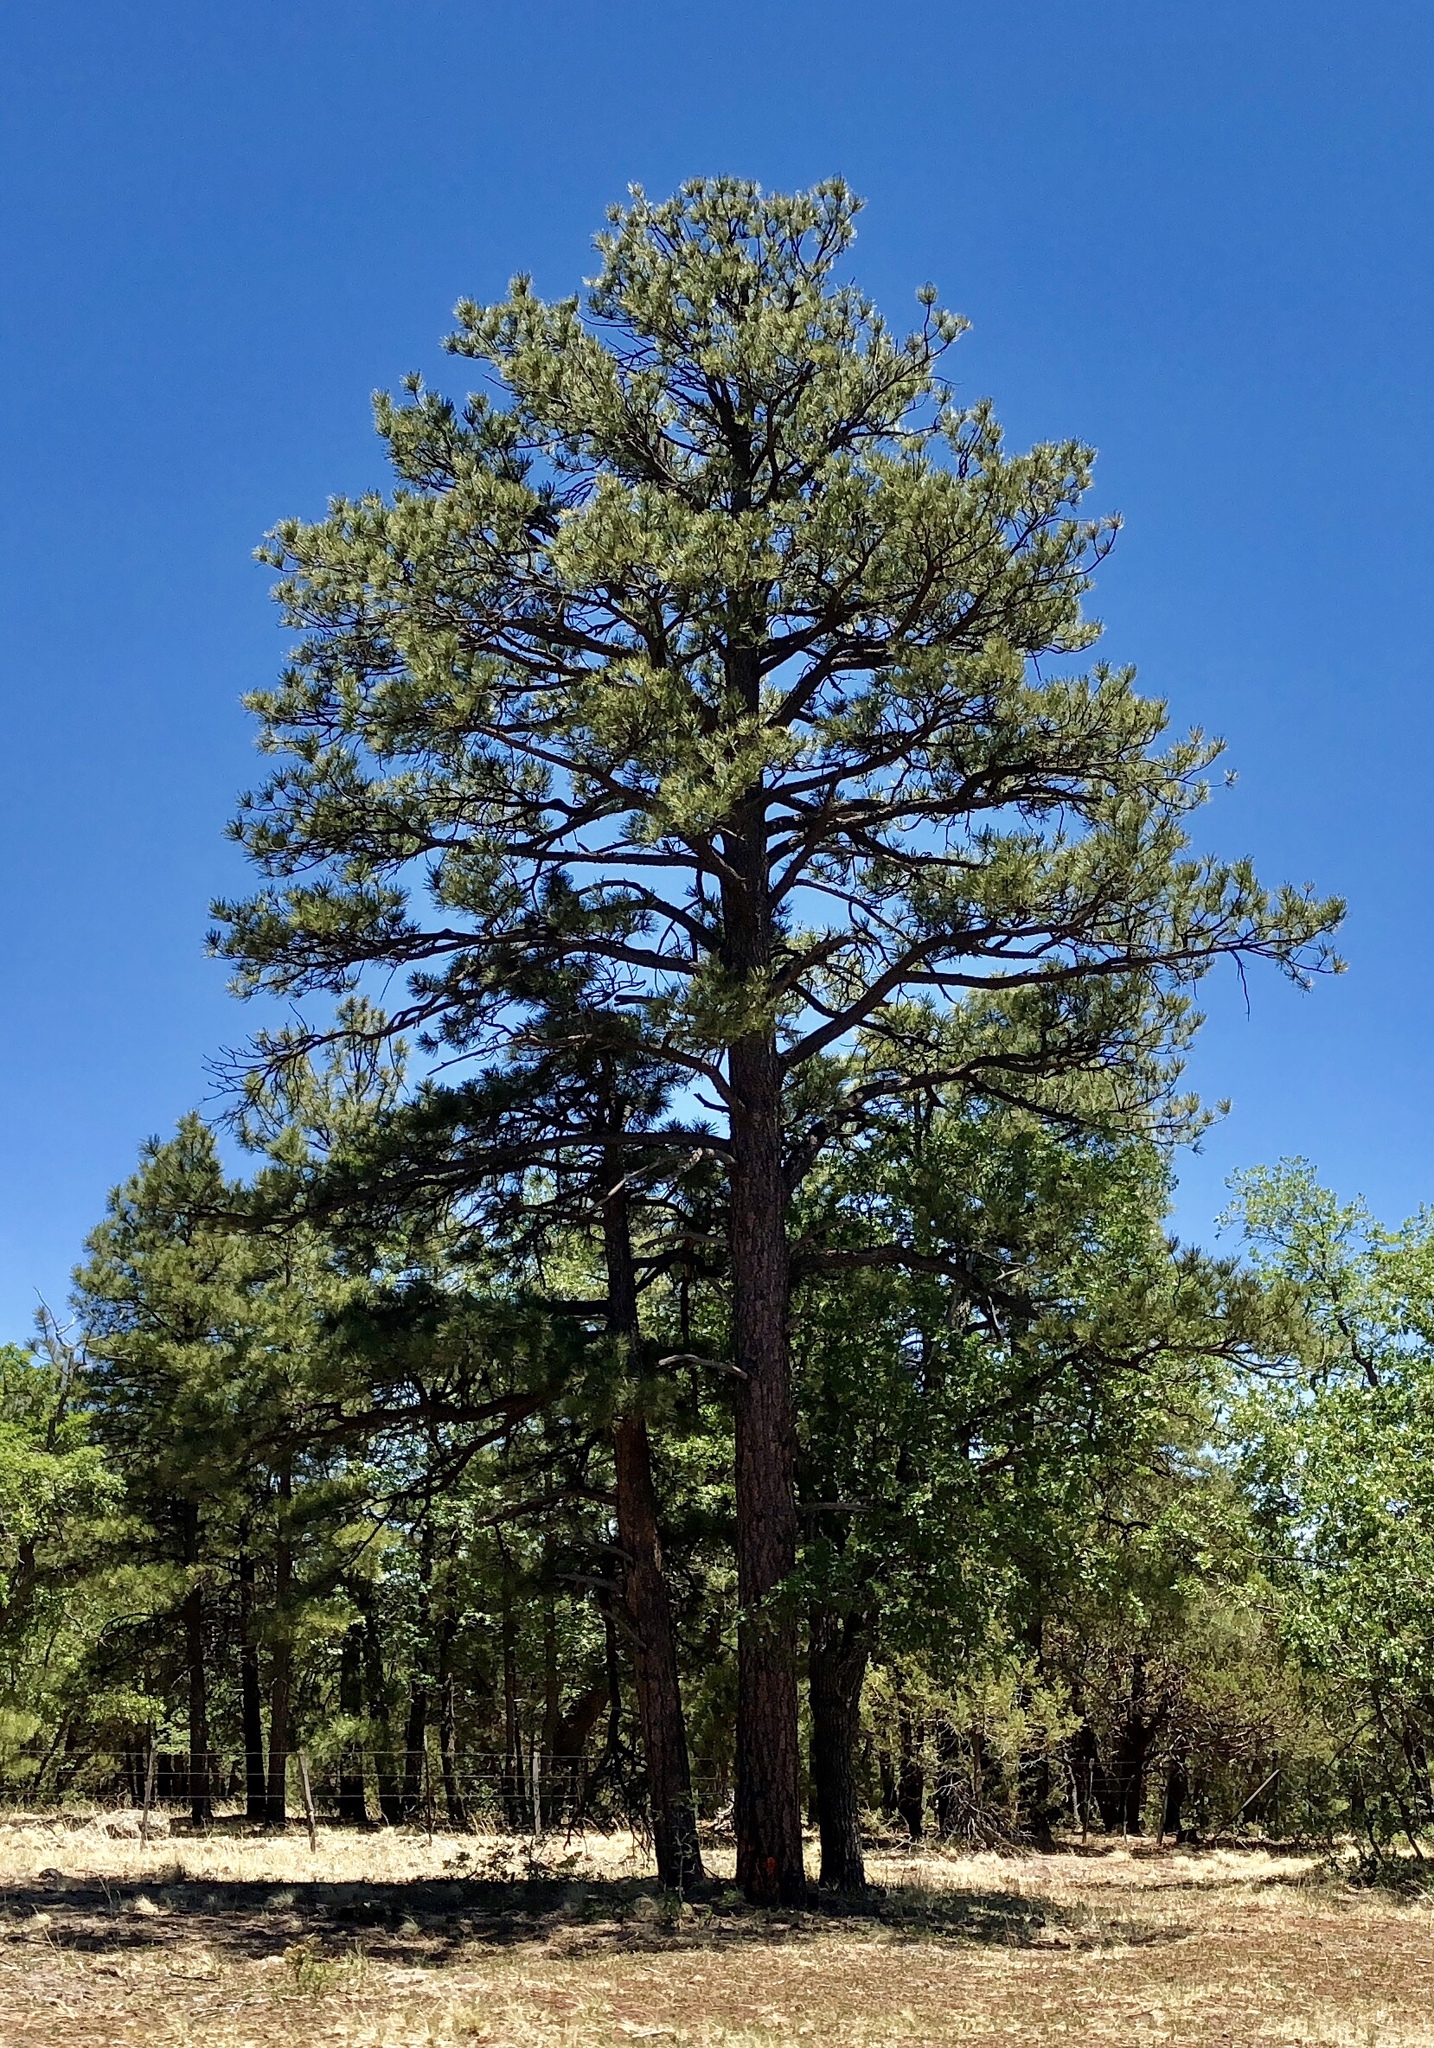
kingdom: Plantae
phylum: Tracheophyta
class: Pinopsida
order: Pinales
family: Pinaceae
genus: Pinus
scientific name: Pinus ponderosa
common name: Western yellow-pine
